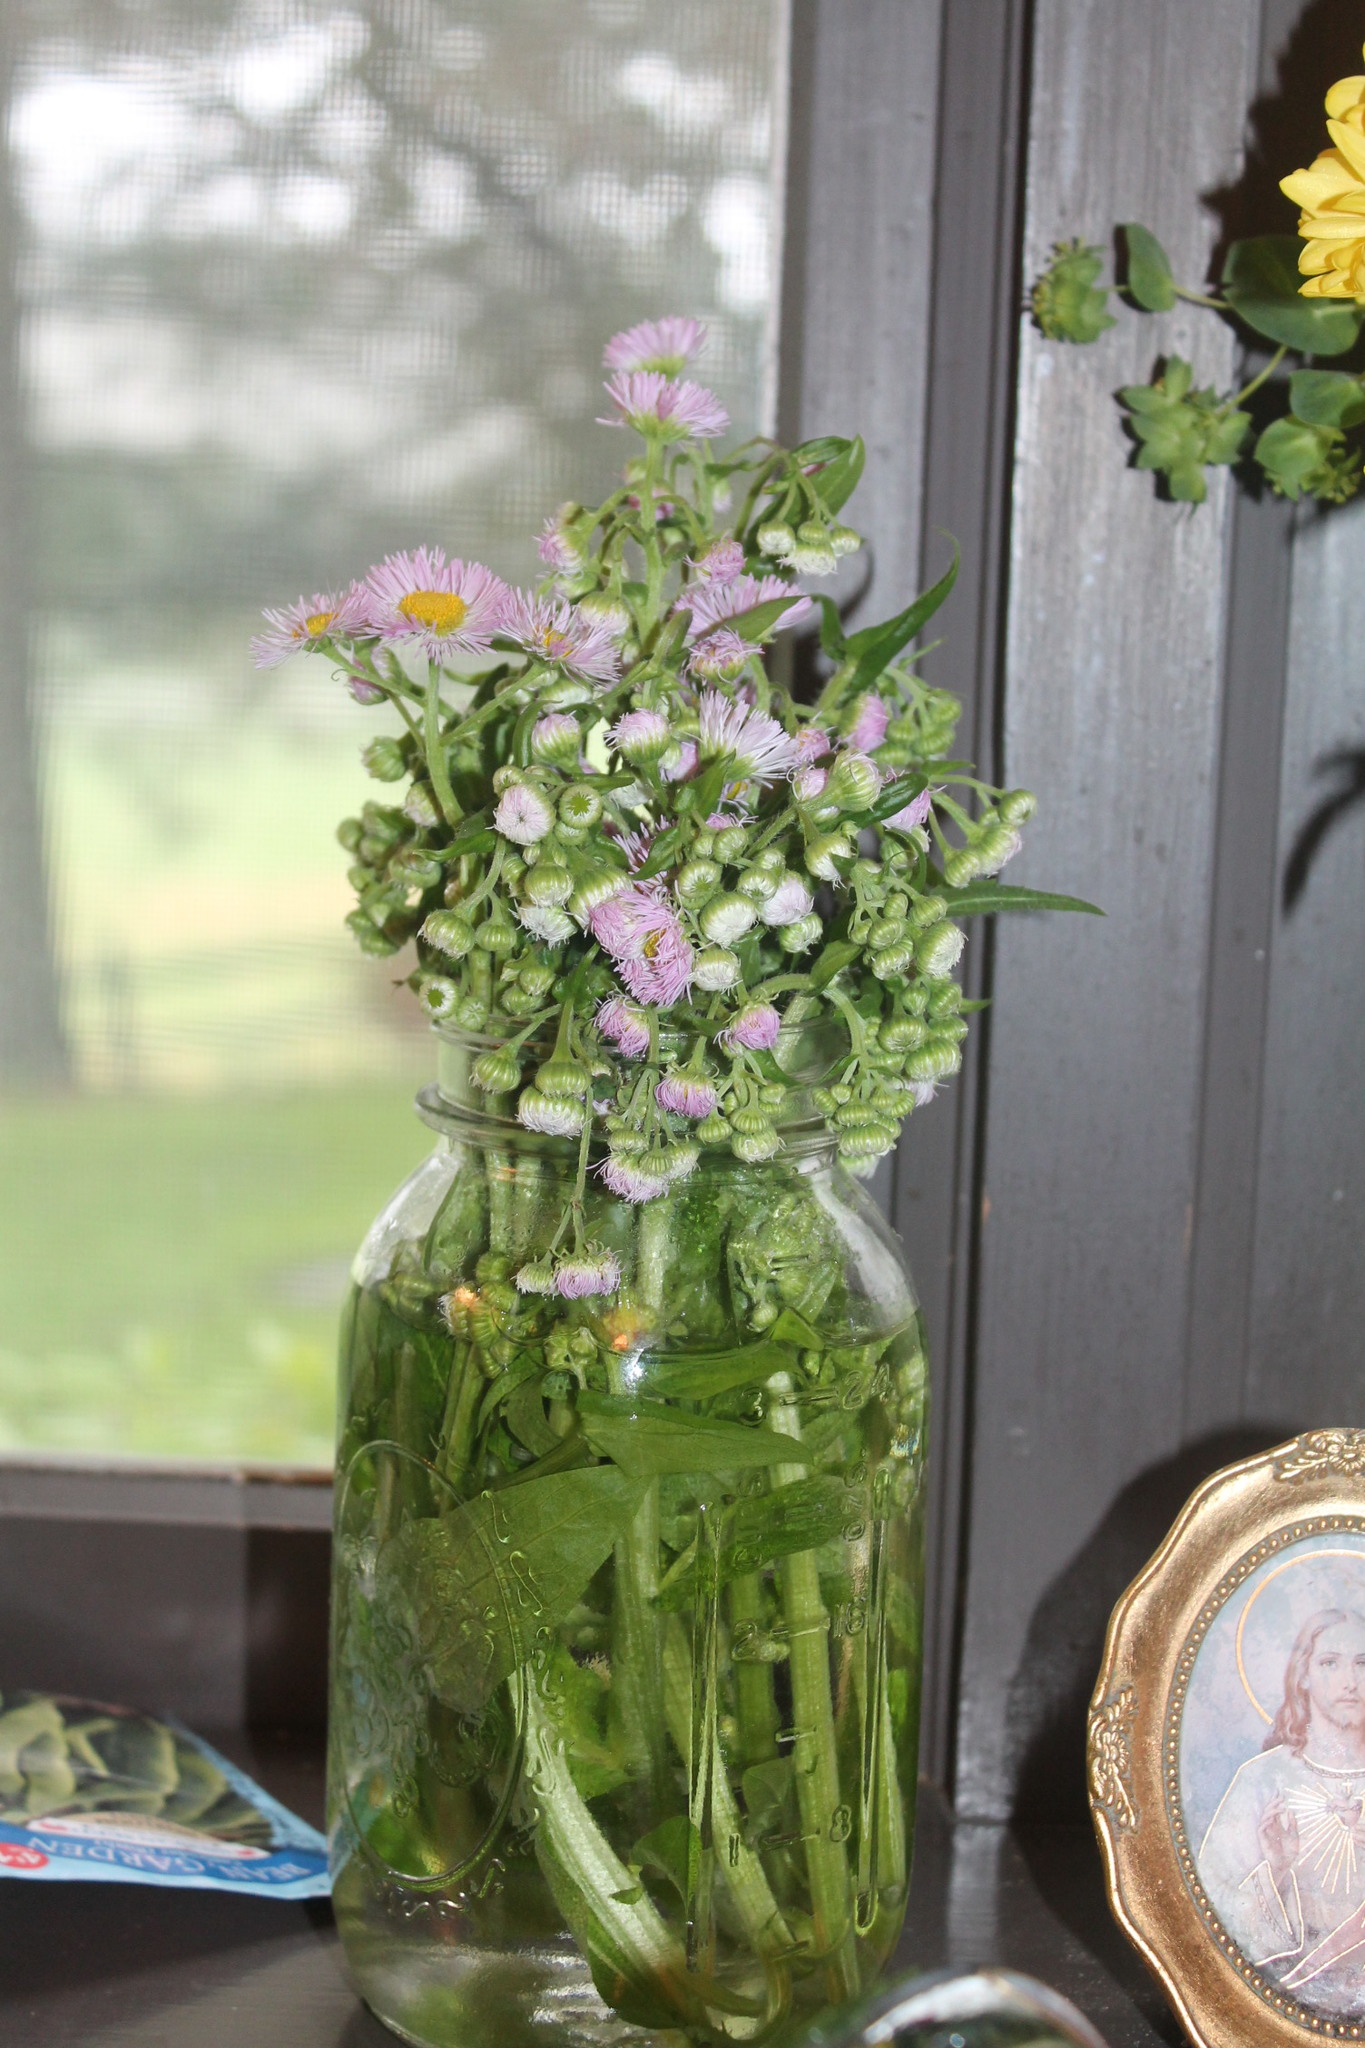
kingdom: Plantae
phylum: Tracheophyta
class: Magnoliopsida
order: Asterales
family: Asteraceae
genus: Erigeron
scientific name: Erigeron philadelphicus
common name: Robin's-plantain
